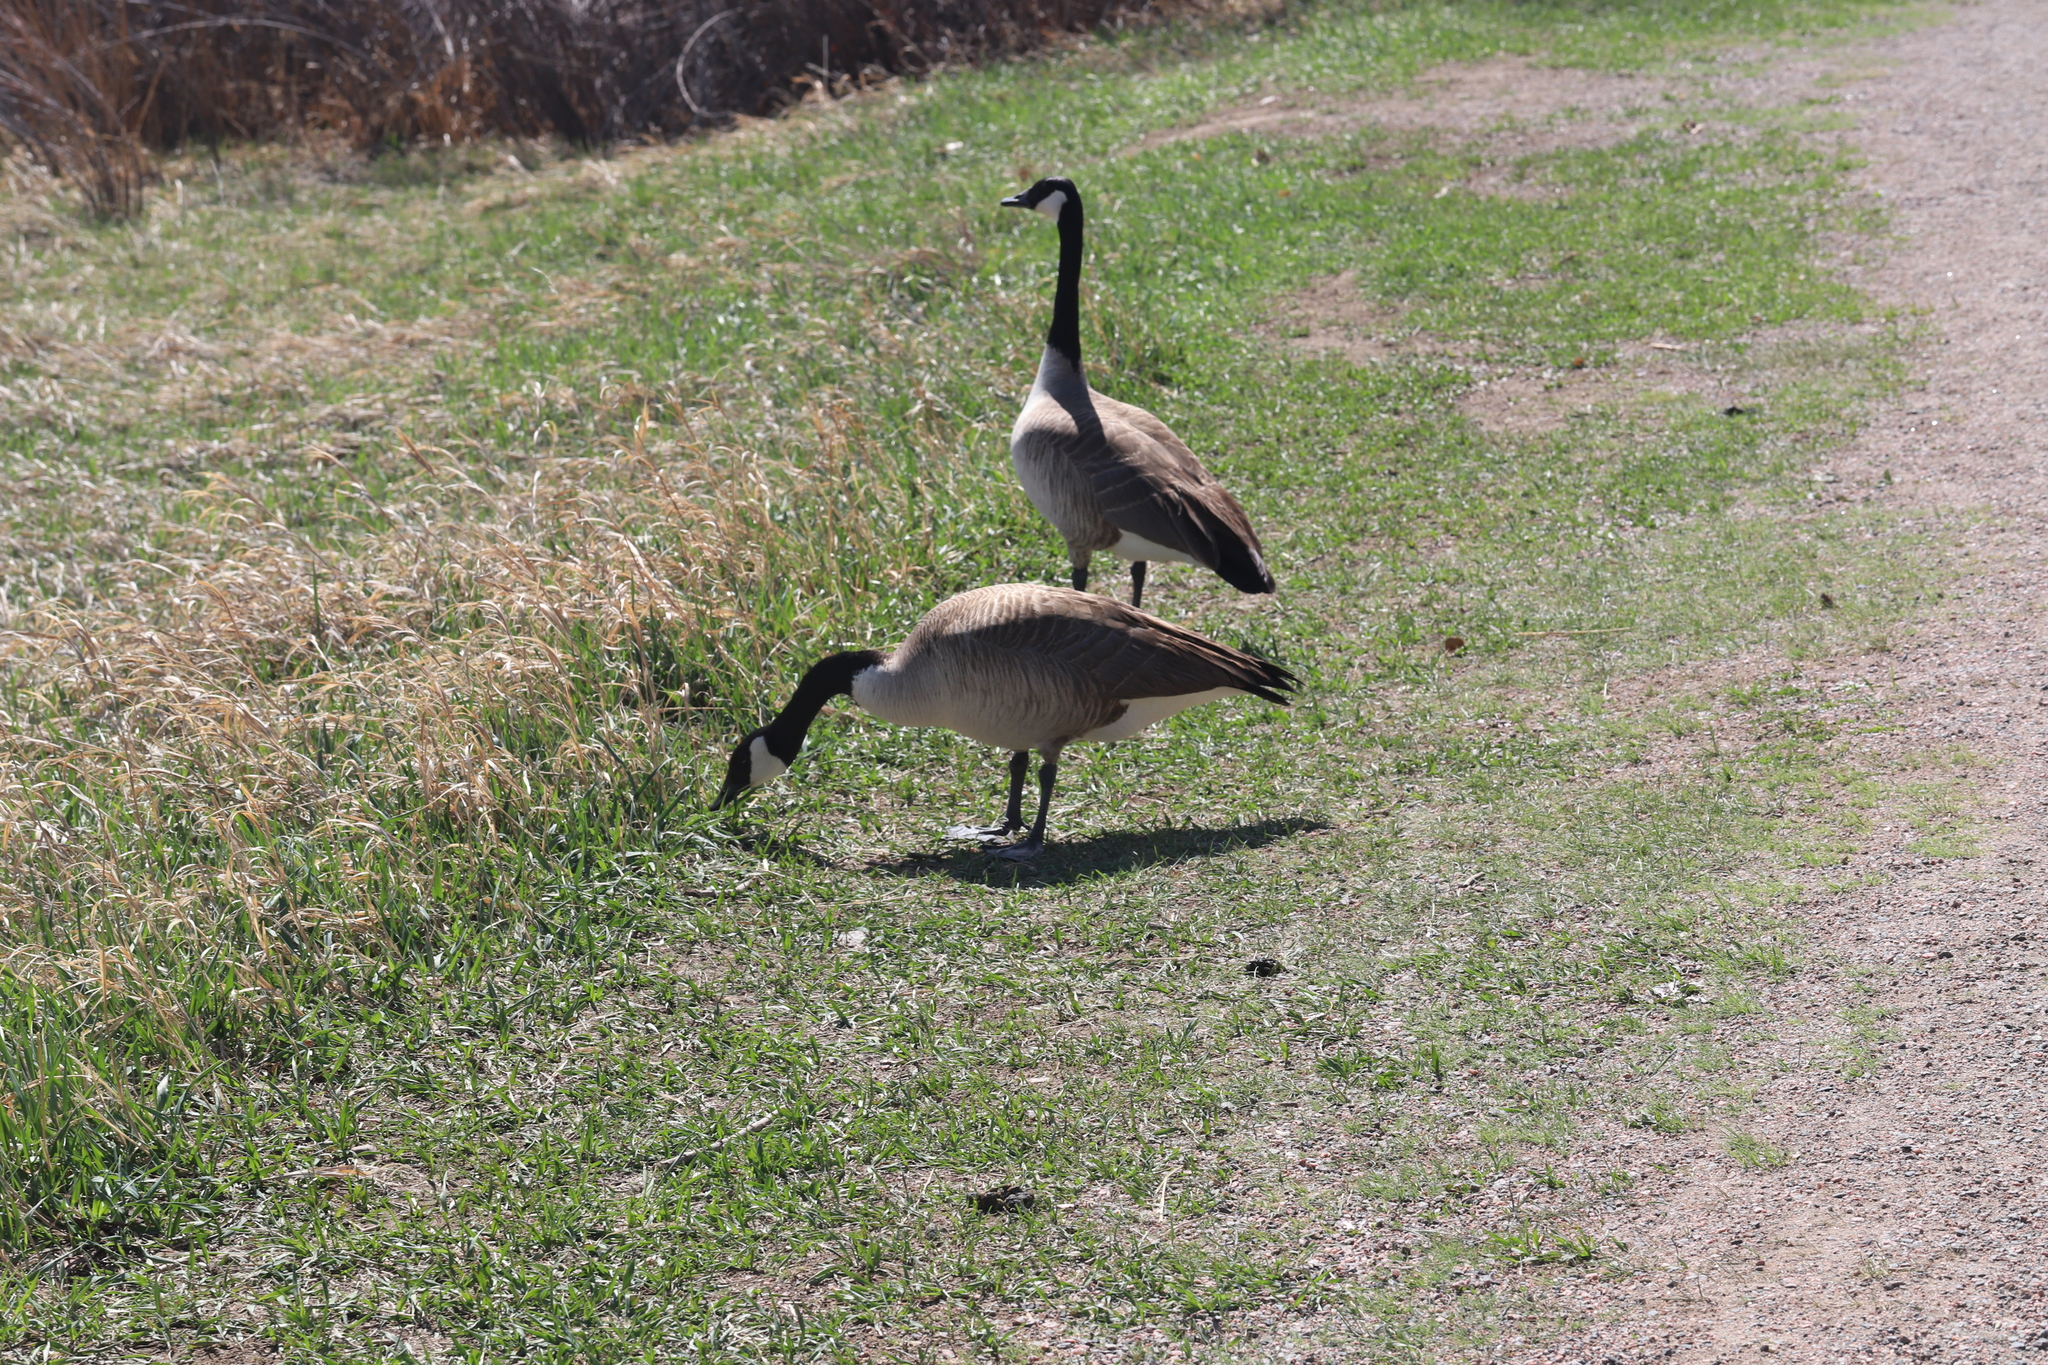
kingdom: Animalia
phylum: Chordata
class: Aves
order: Anseriformes
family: Anatidae
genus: Branta
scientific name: Branta canadensis
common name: Canada goose
